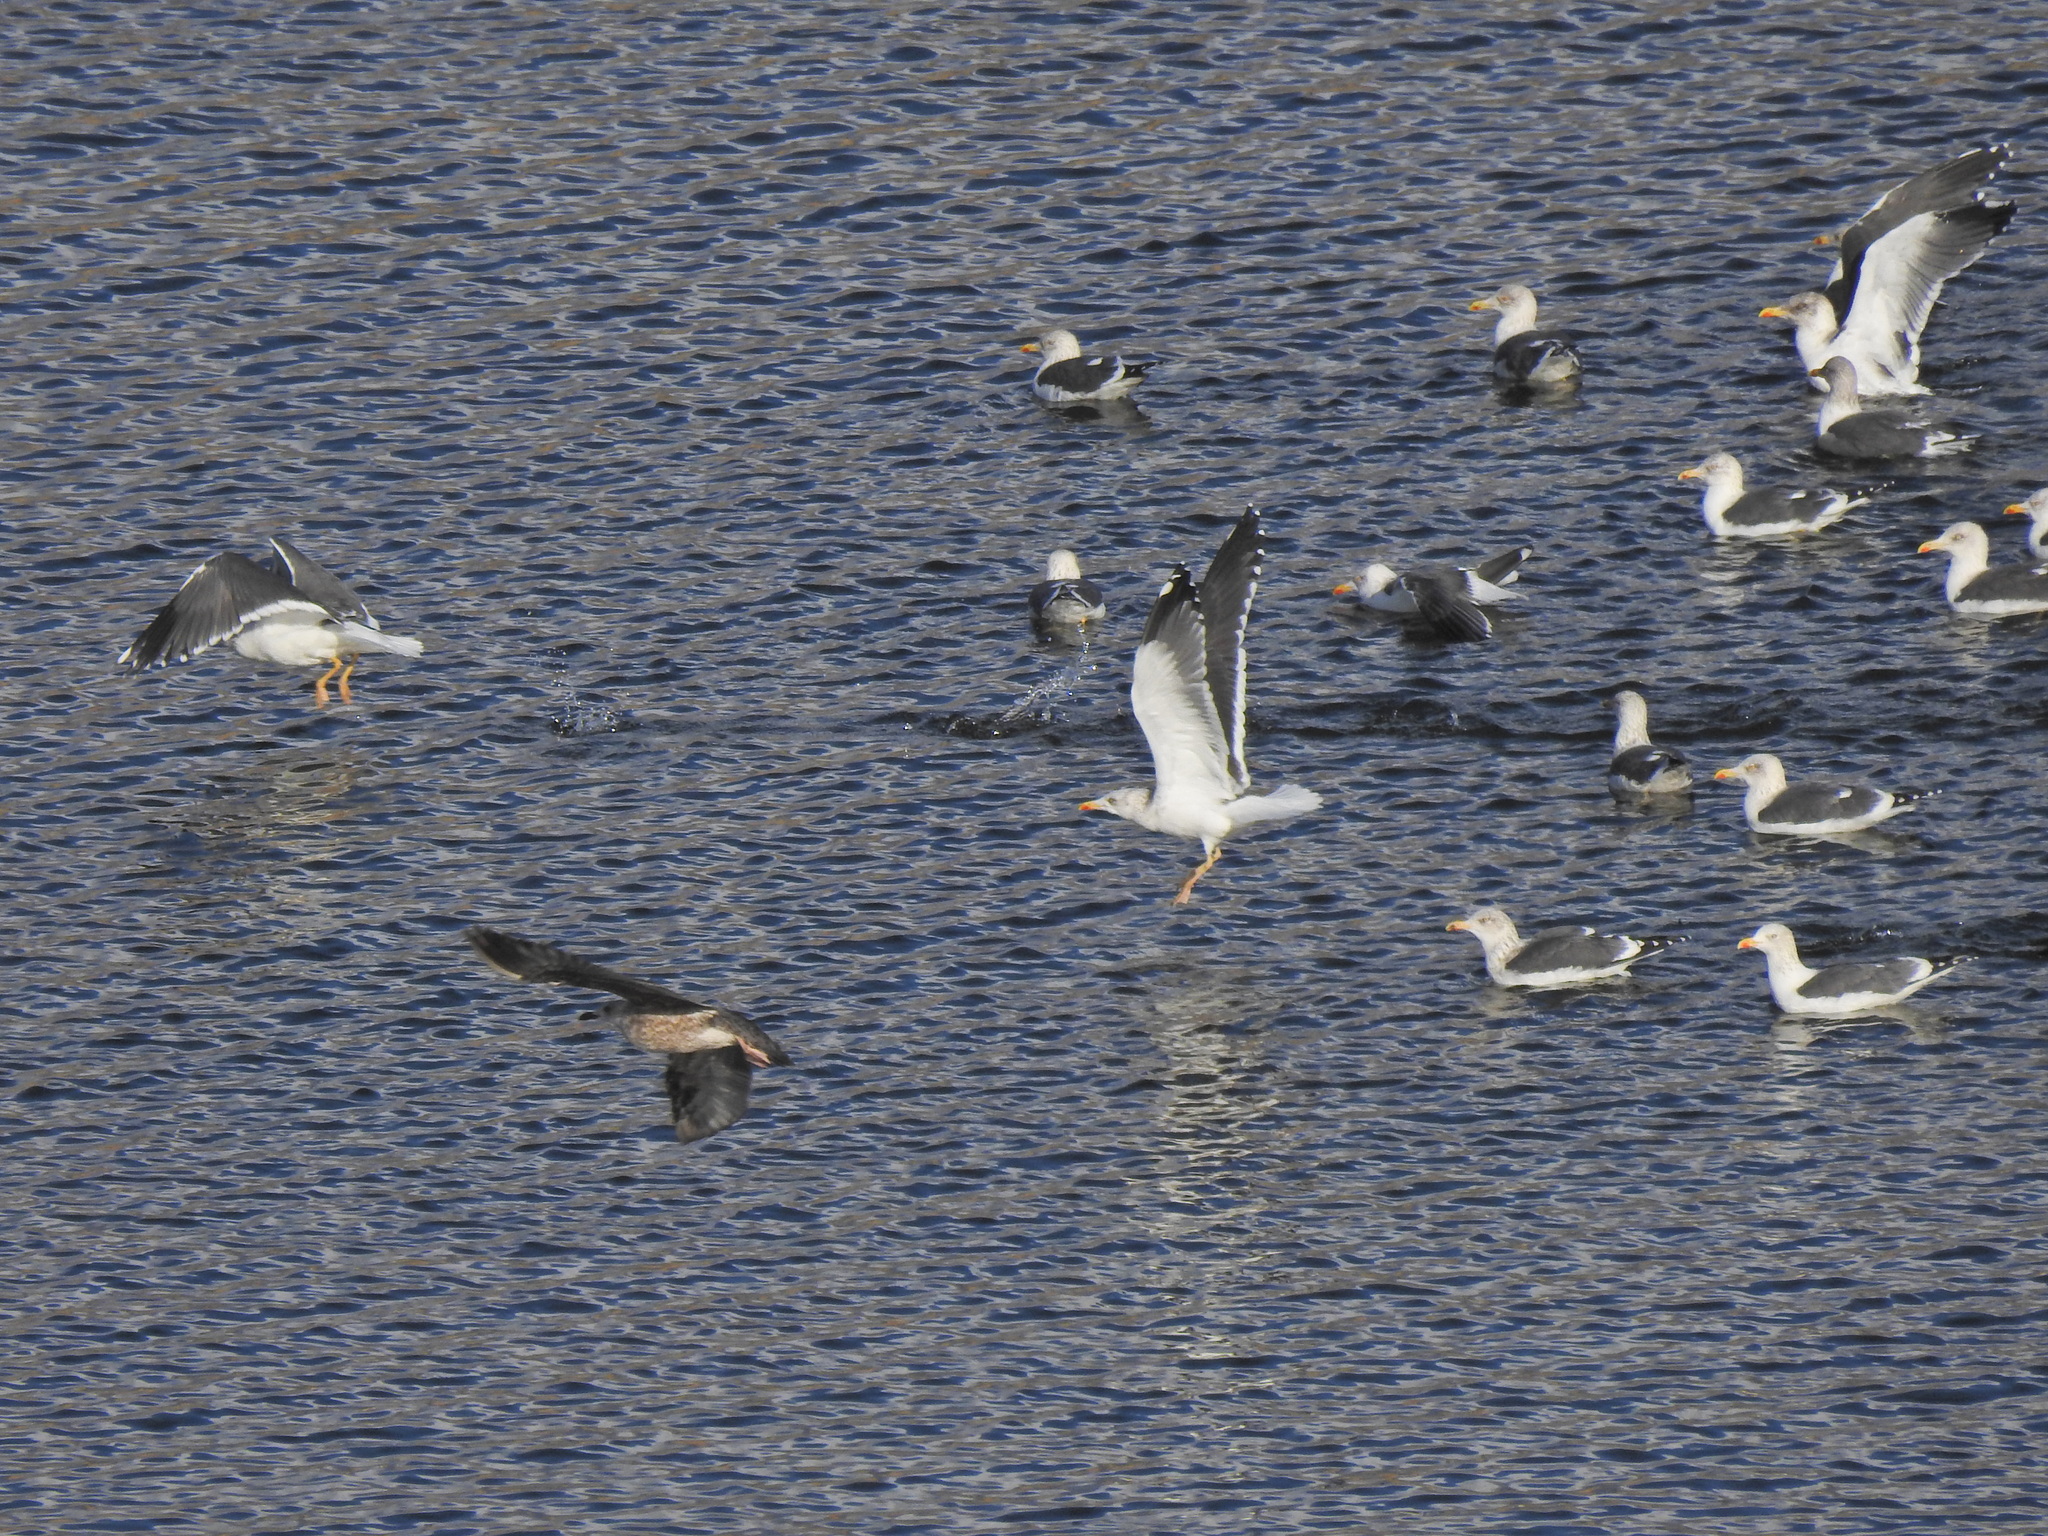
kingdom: Animalia
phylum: Chordata
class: Aves
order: Charadriiformes
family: Laridae
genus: Larus
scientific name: Larus fuscus
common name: Lesser black-backed gull
